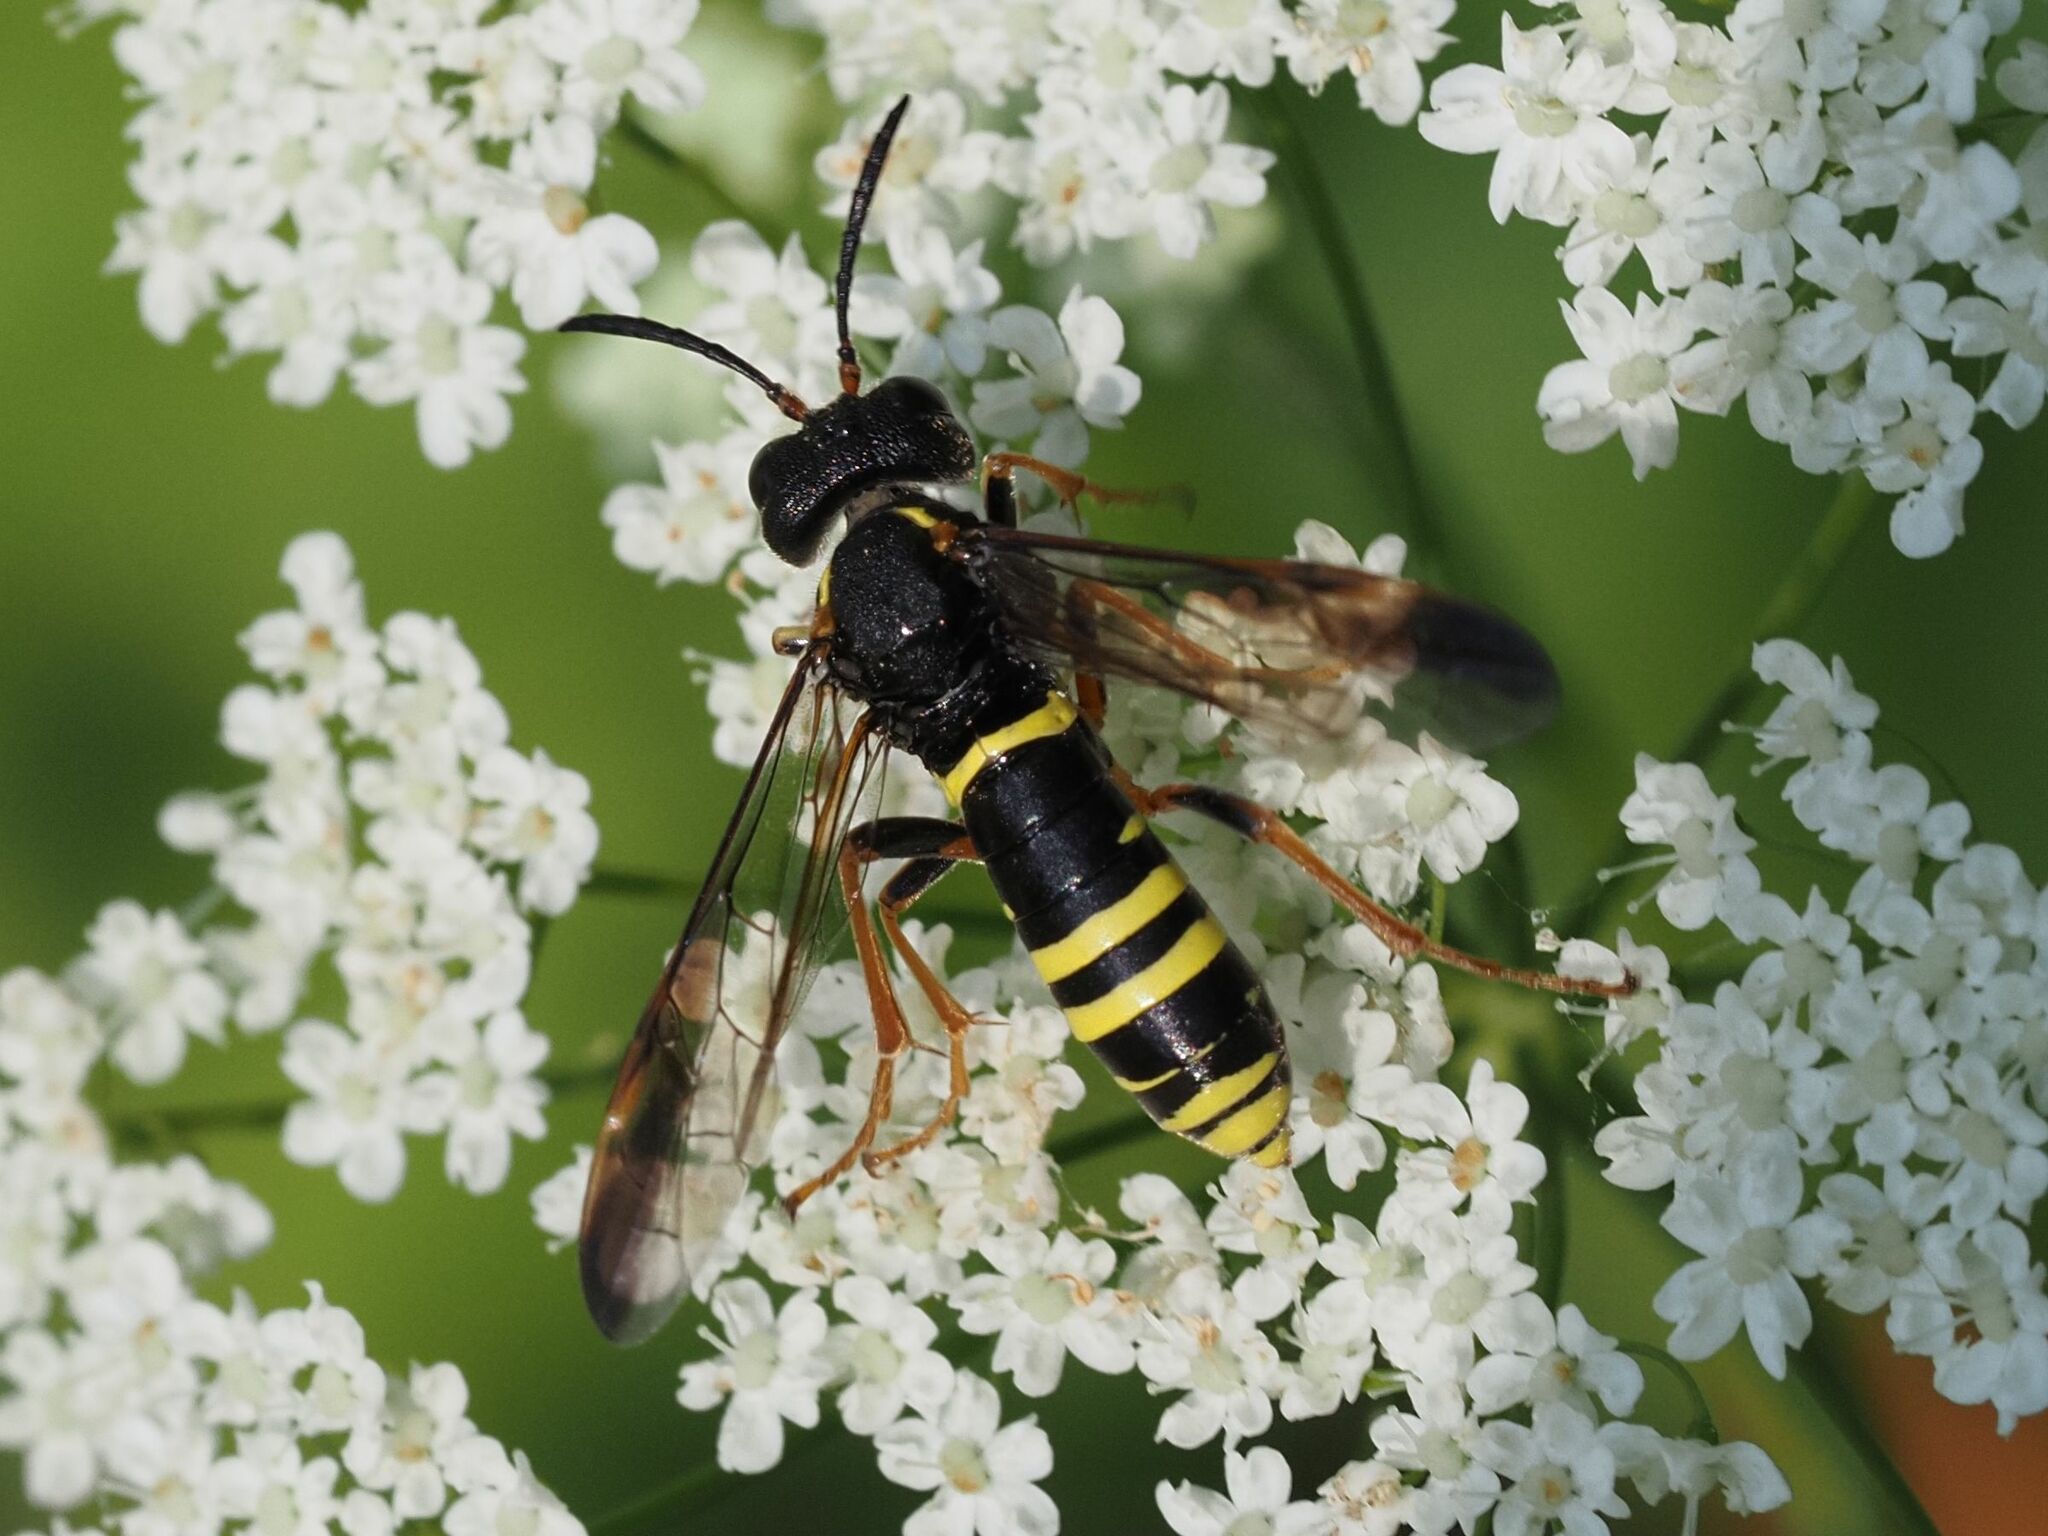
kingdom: Animalia
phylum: Arthropoda
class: Insecta
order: Hymenoptera
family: Tenthredinidae
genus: Tenthredo
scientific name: Tenthredo vespa
